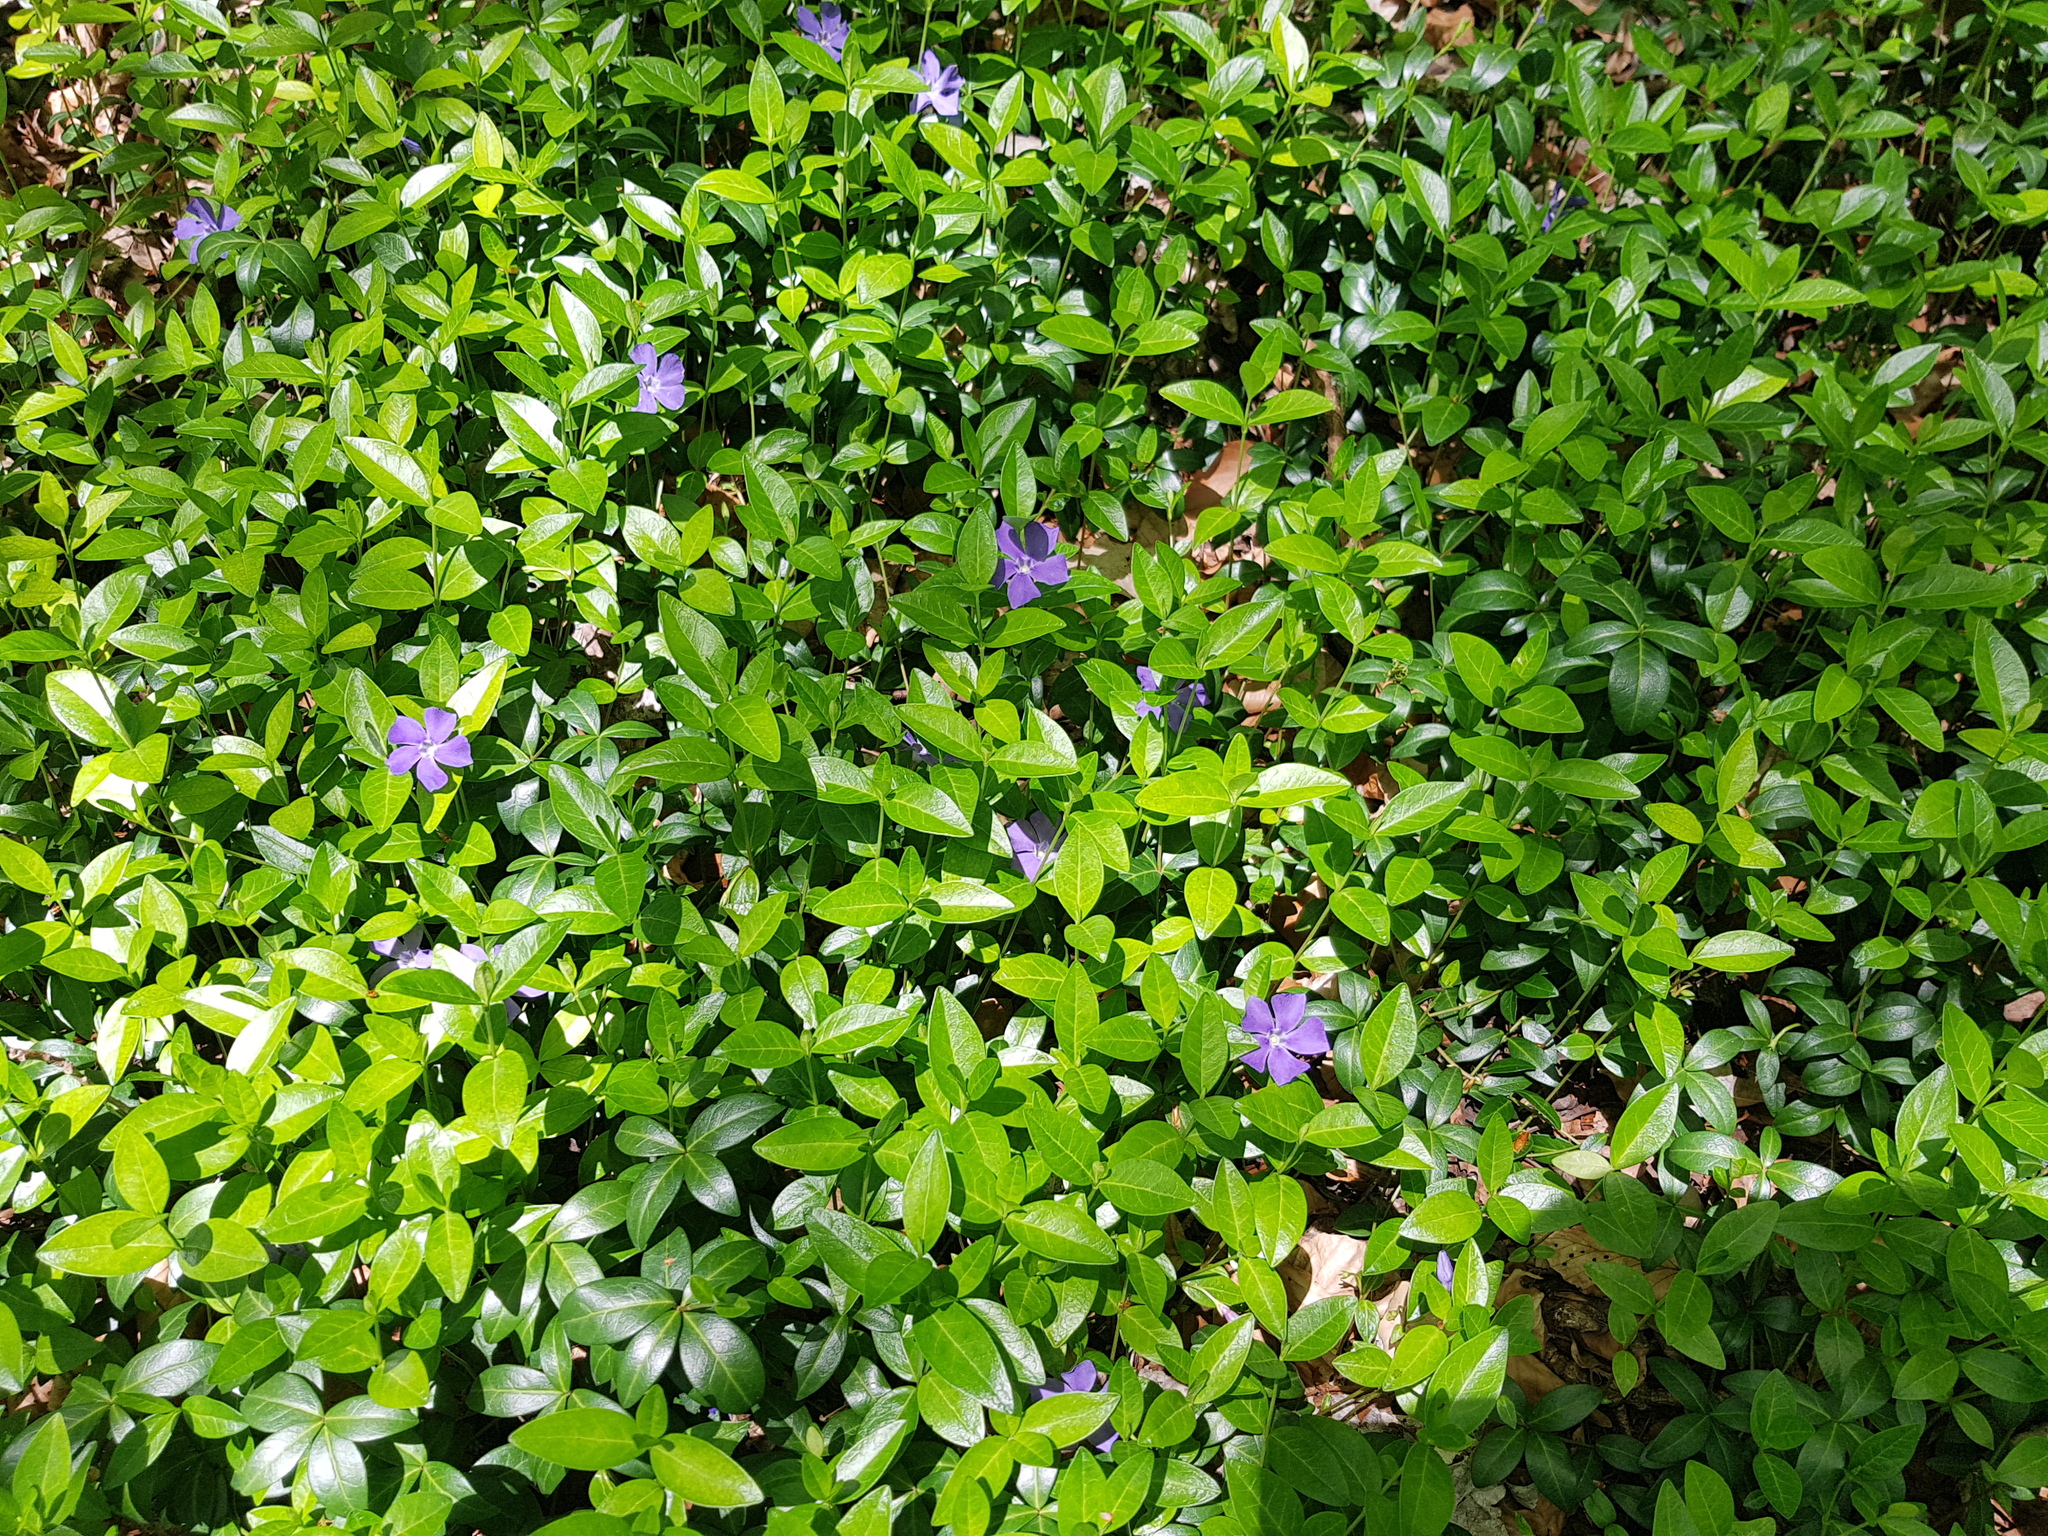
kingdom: Plantae
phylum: Tracheophyta
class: Magnoliopsida
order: Gentianales
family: Apocynaceae
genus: Vinca
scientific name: Vinca minor
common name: Lesser periwinkle
